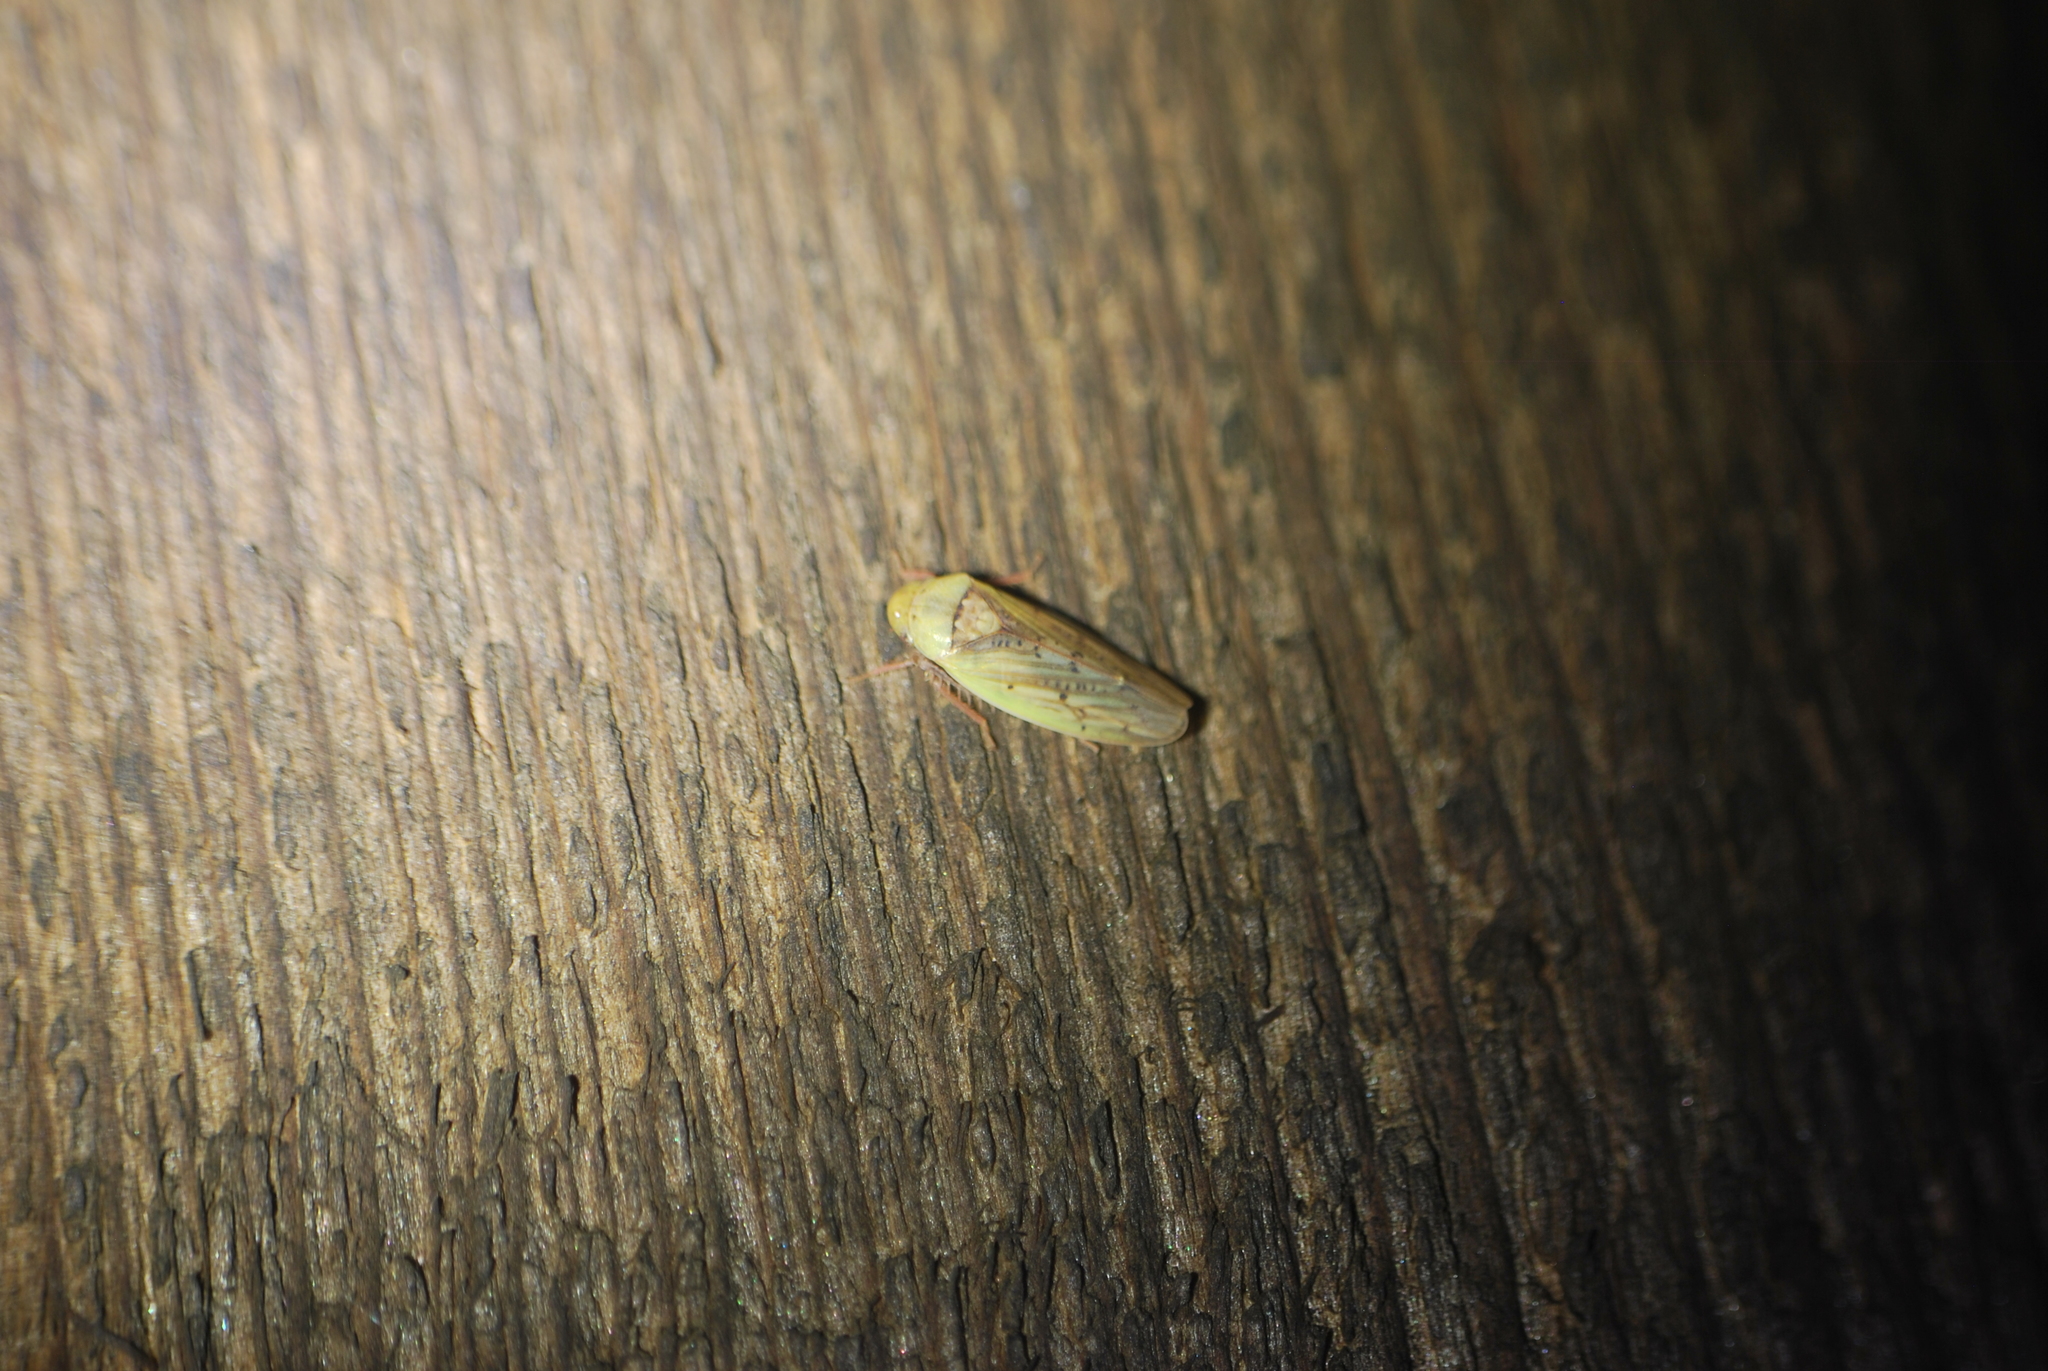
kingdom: Animalia
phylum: Arthropoda
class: Insecta
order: Hemiptera
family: Cicadellidae
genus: Ponana
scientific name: Ponana pectoralis
